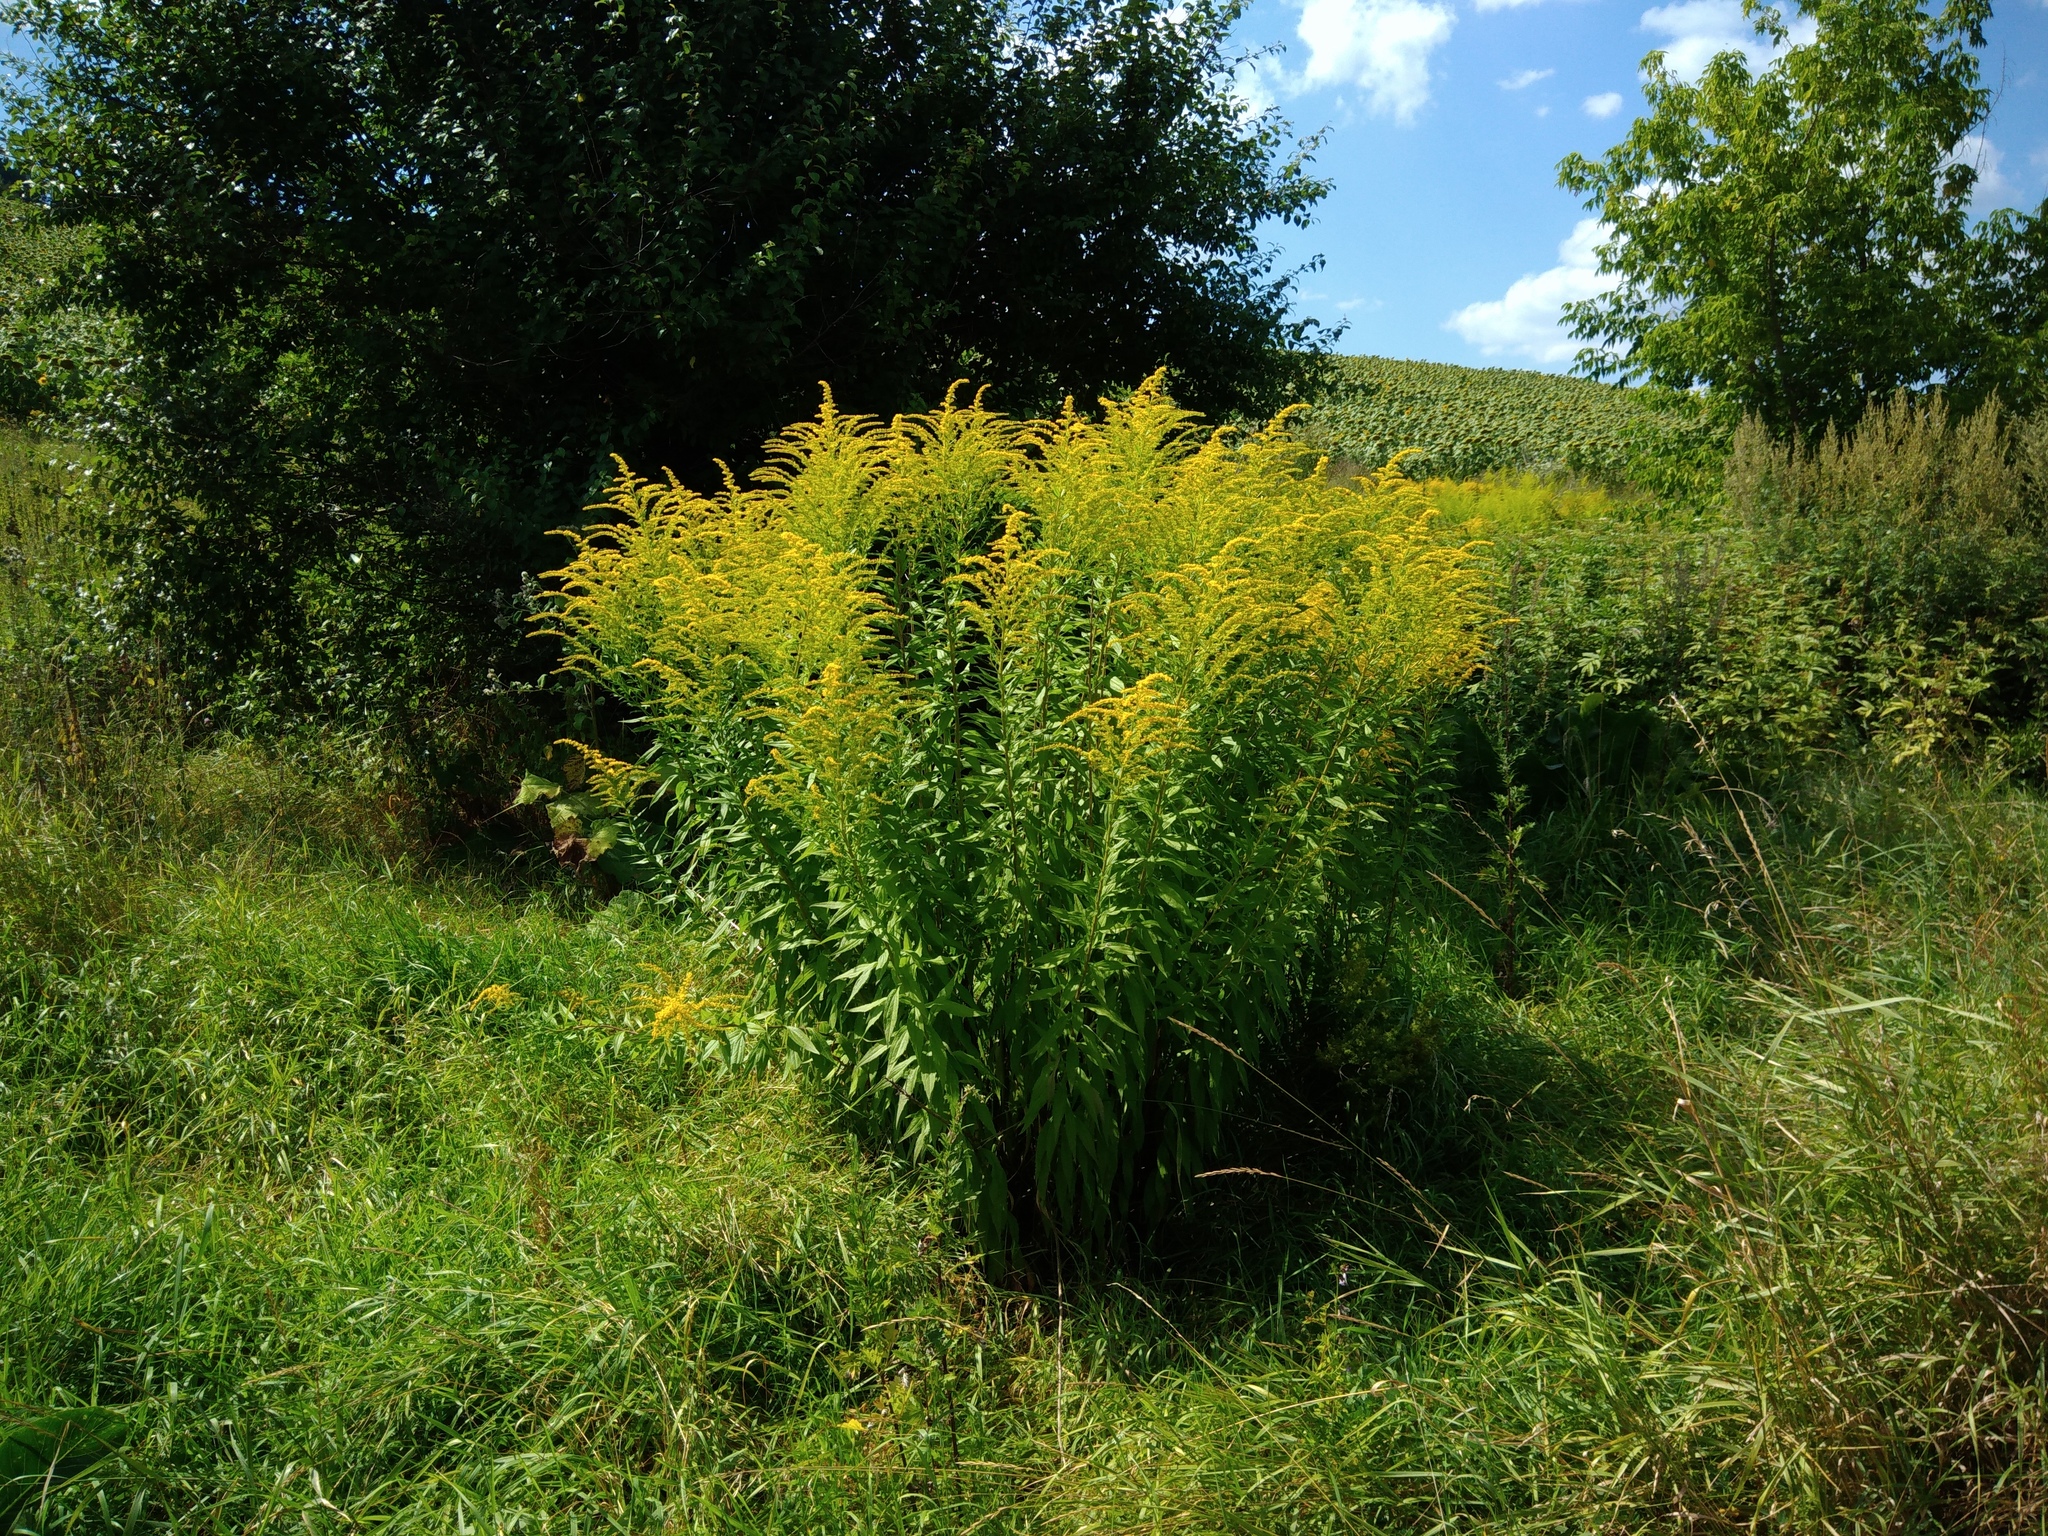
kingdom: Plantae
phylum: Tracheophyta
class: Magnoliopsida
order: Asterales
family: Asteraceae
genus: Solidago
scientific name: Solidago canadensis
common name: Canada goldenrod
